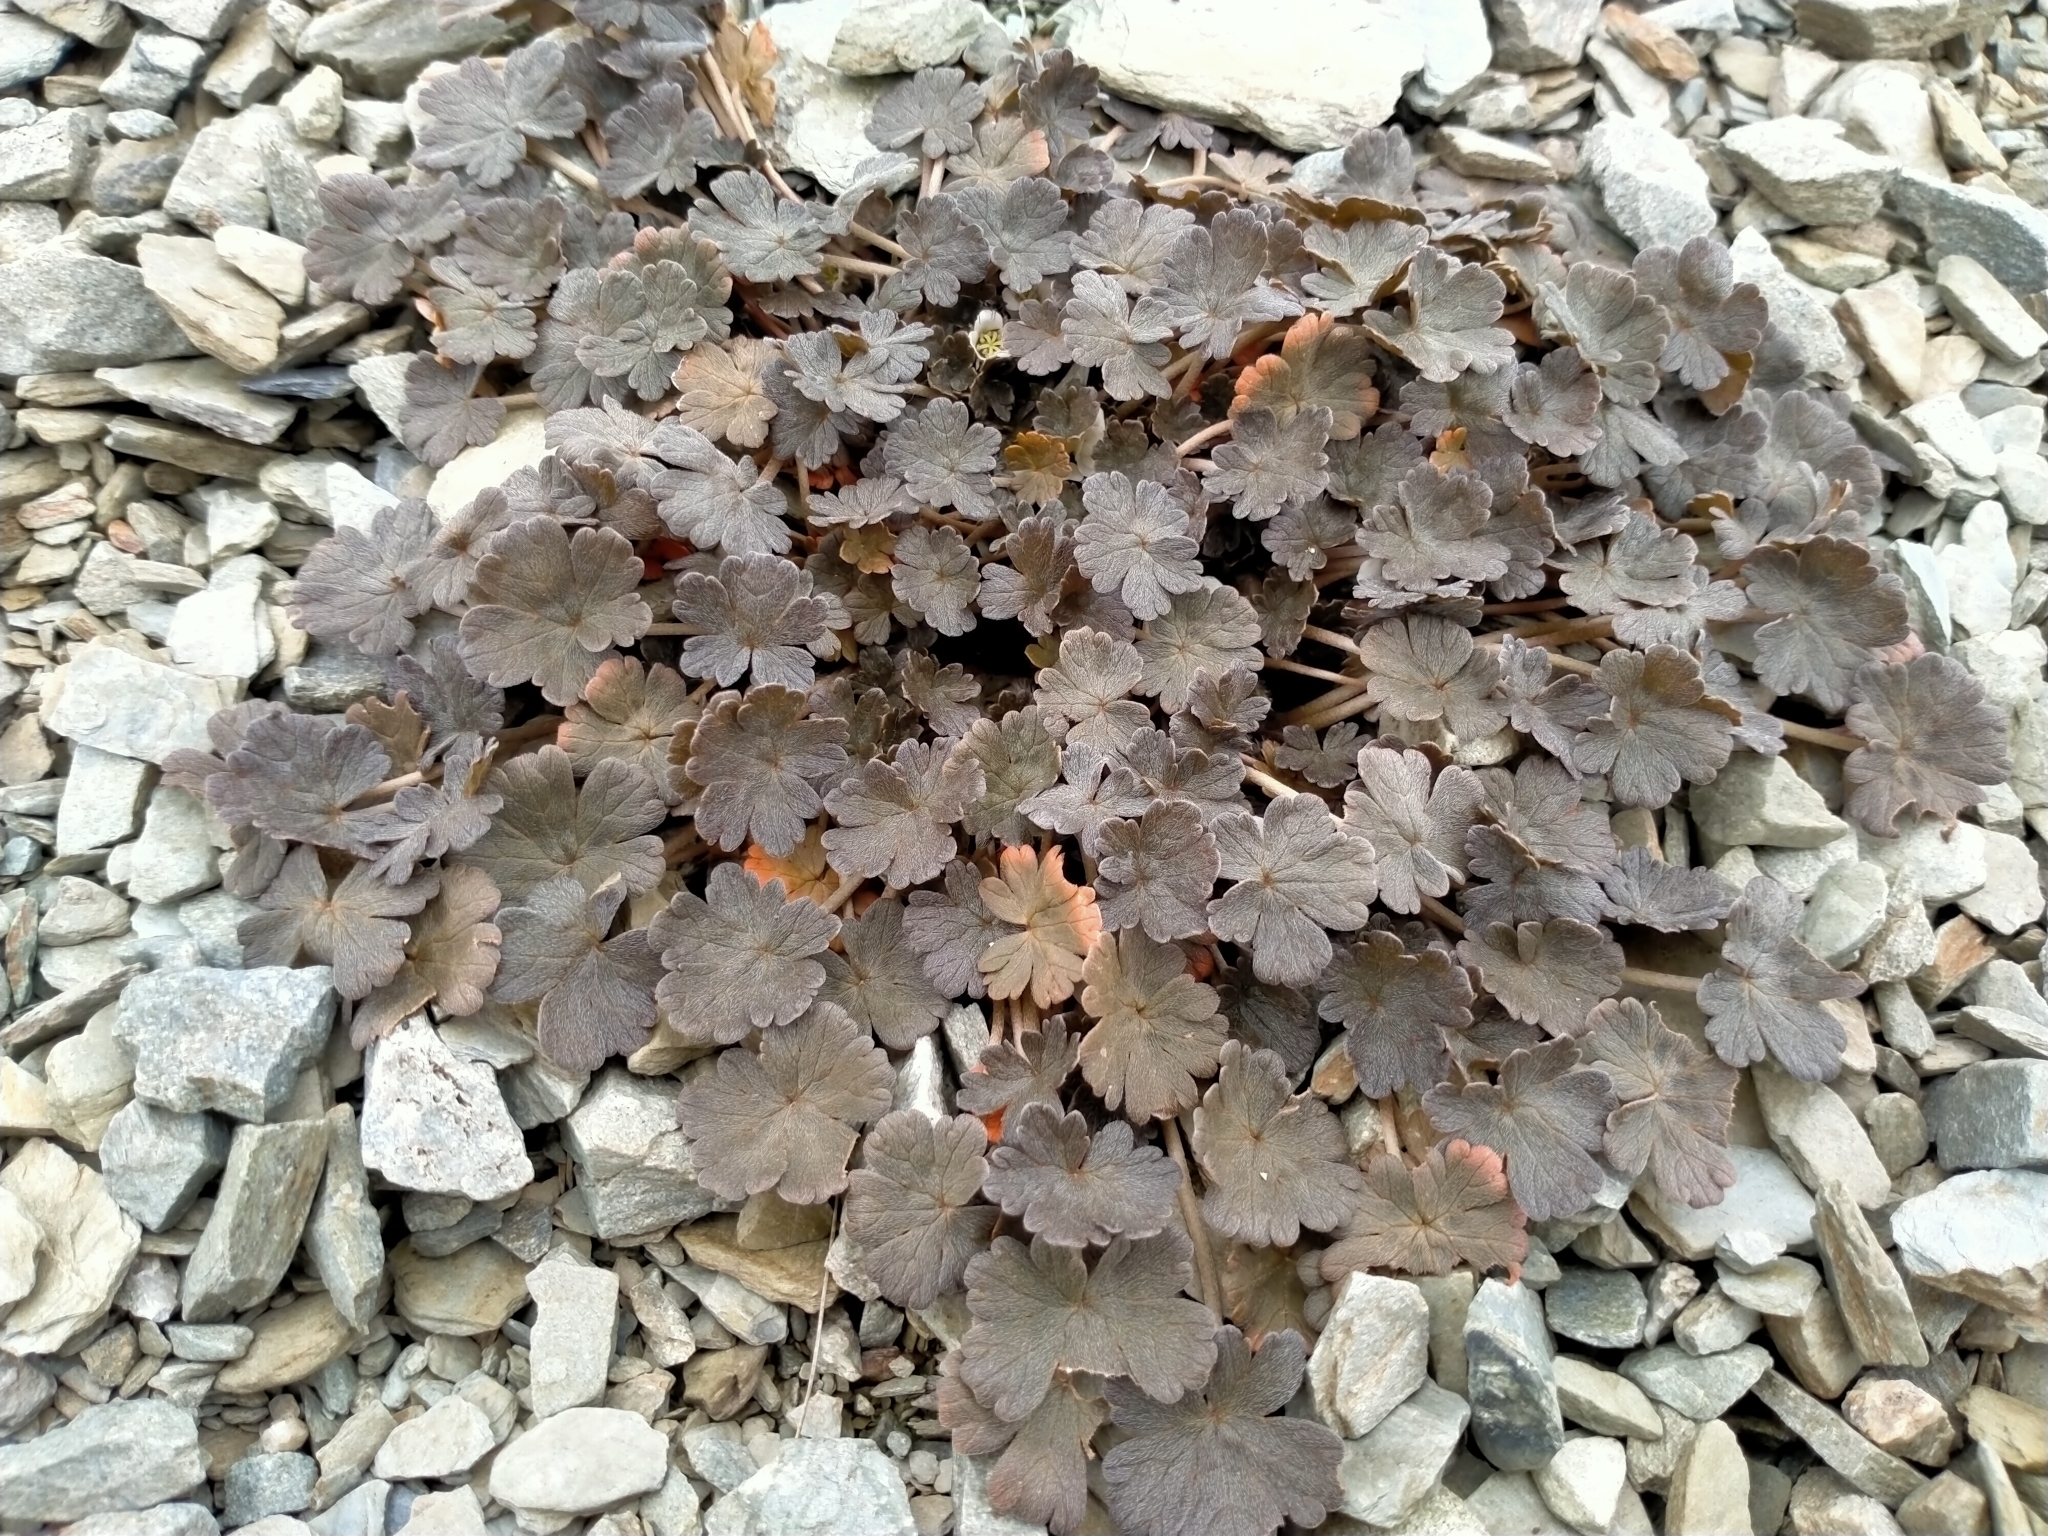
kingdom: Plantae
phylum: Tracheophyta
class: Magnoliopsida
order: Geraniales
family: Geraniaceae
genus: Geranium
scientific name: Geranium brevicaule
